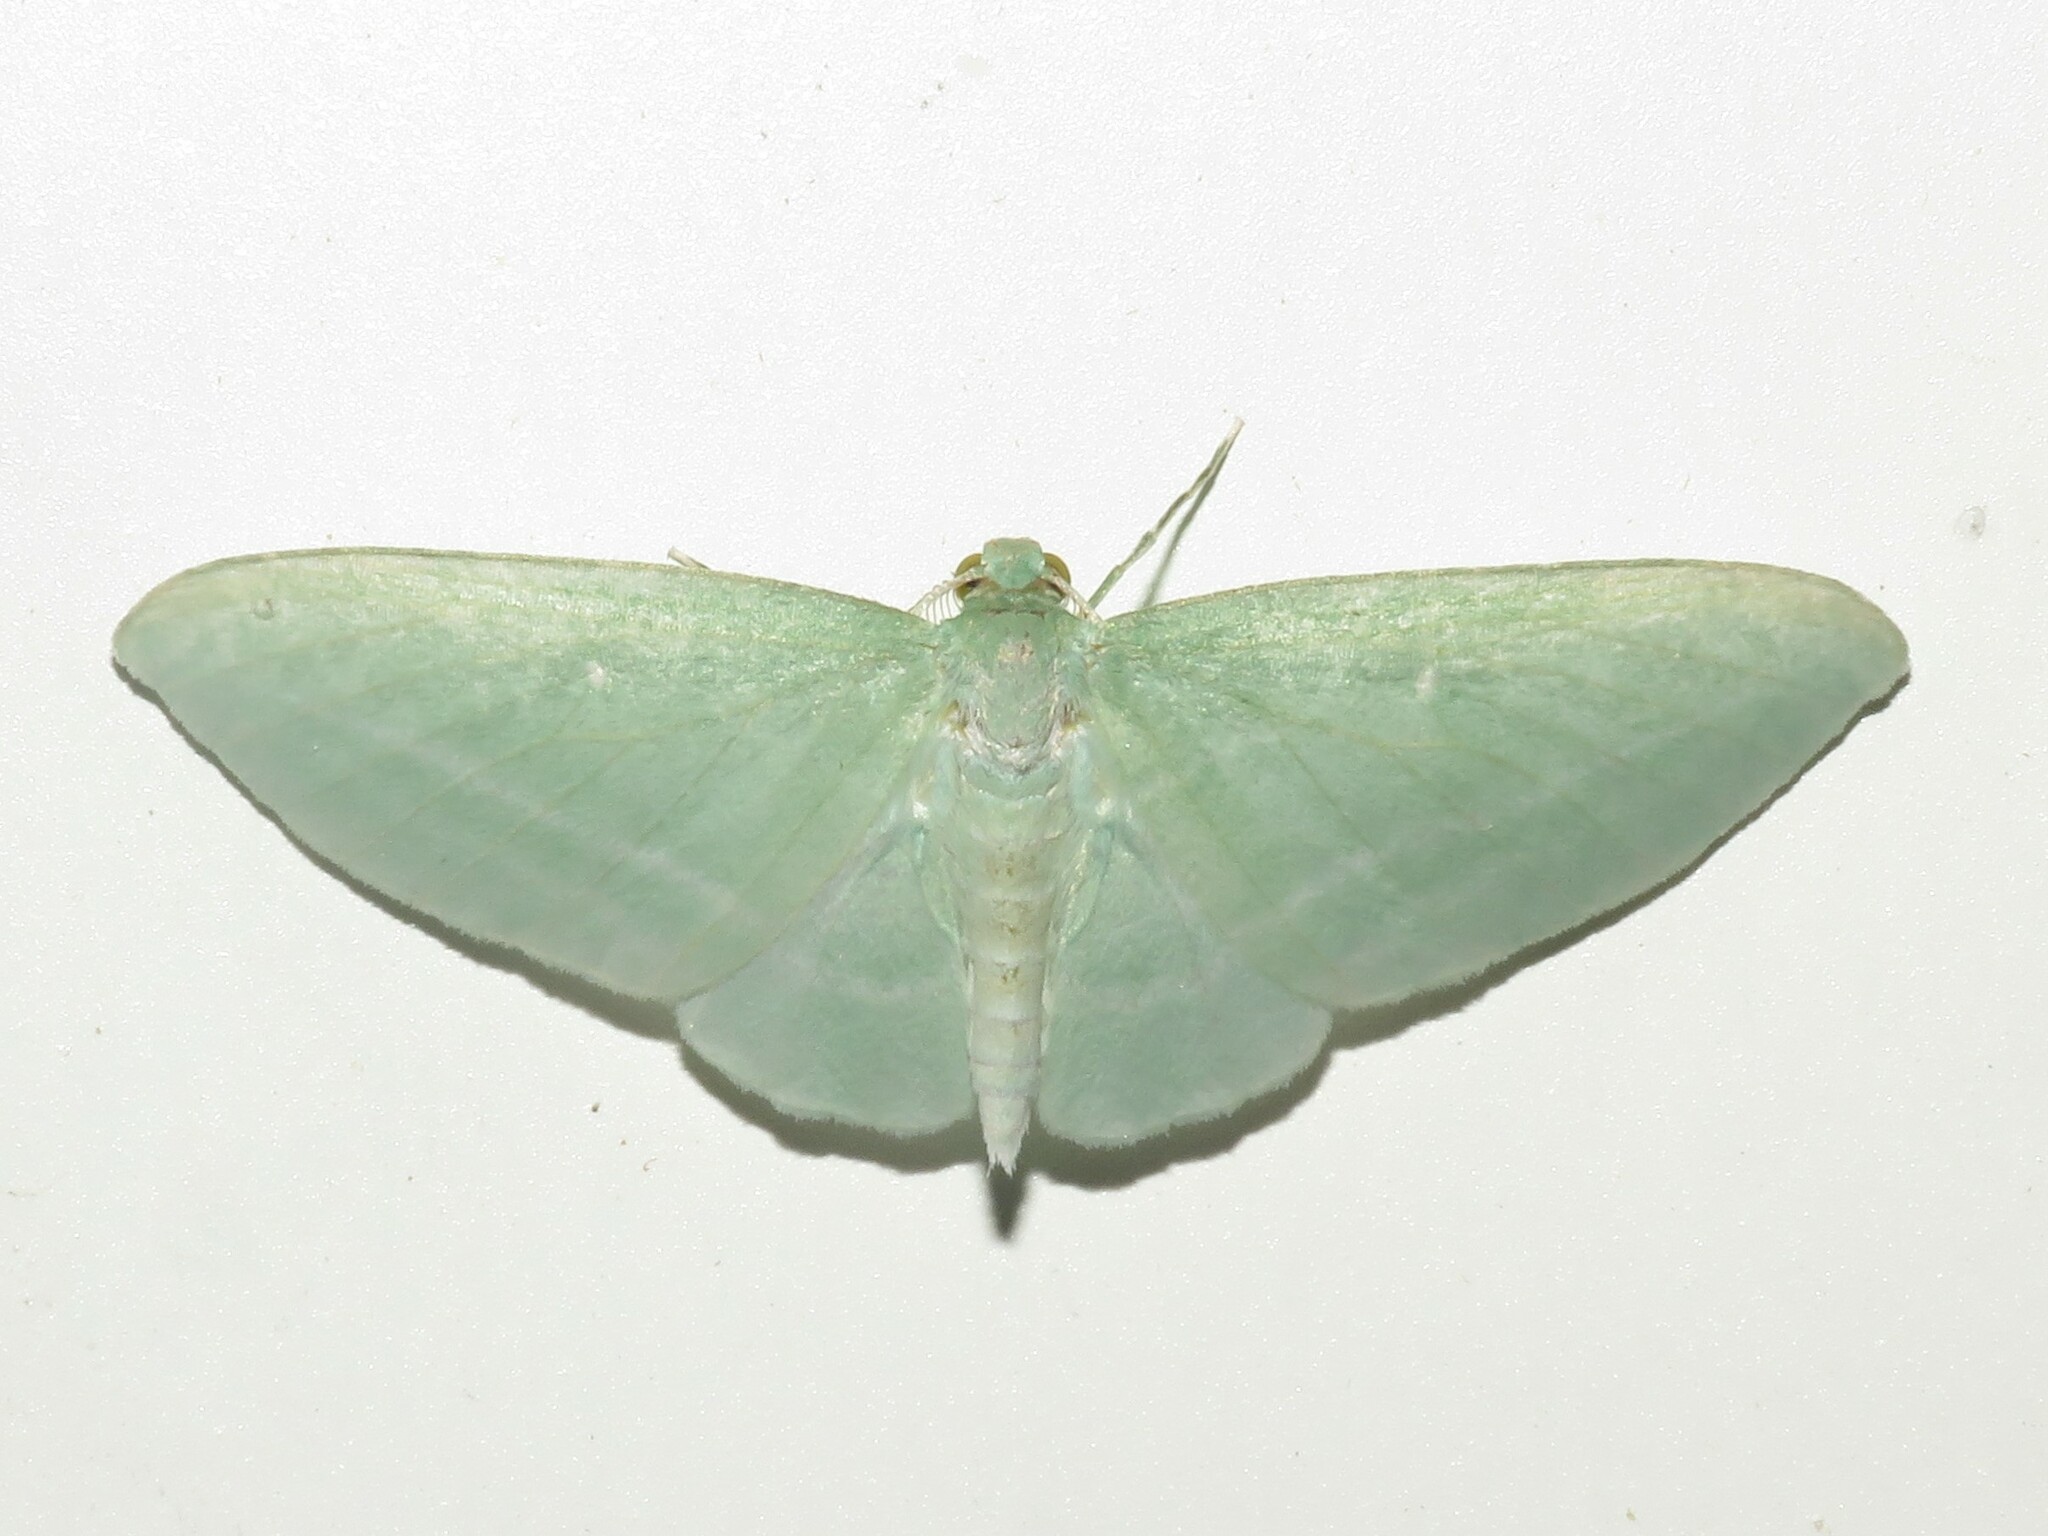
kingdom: Animalia
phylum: Arthropoda
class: Insecta
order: Lepidoptera
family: Geometridae
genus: Dyspteris
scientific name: Dyspteris abortivaria
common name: Bad-wing
